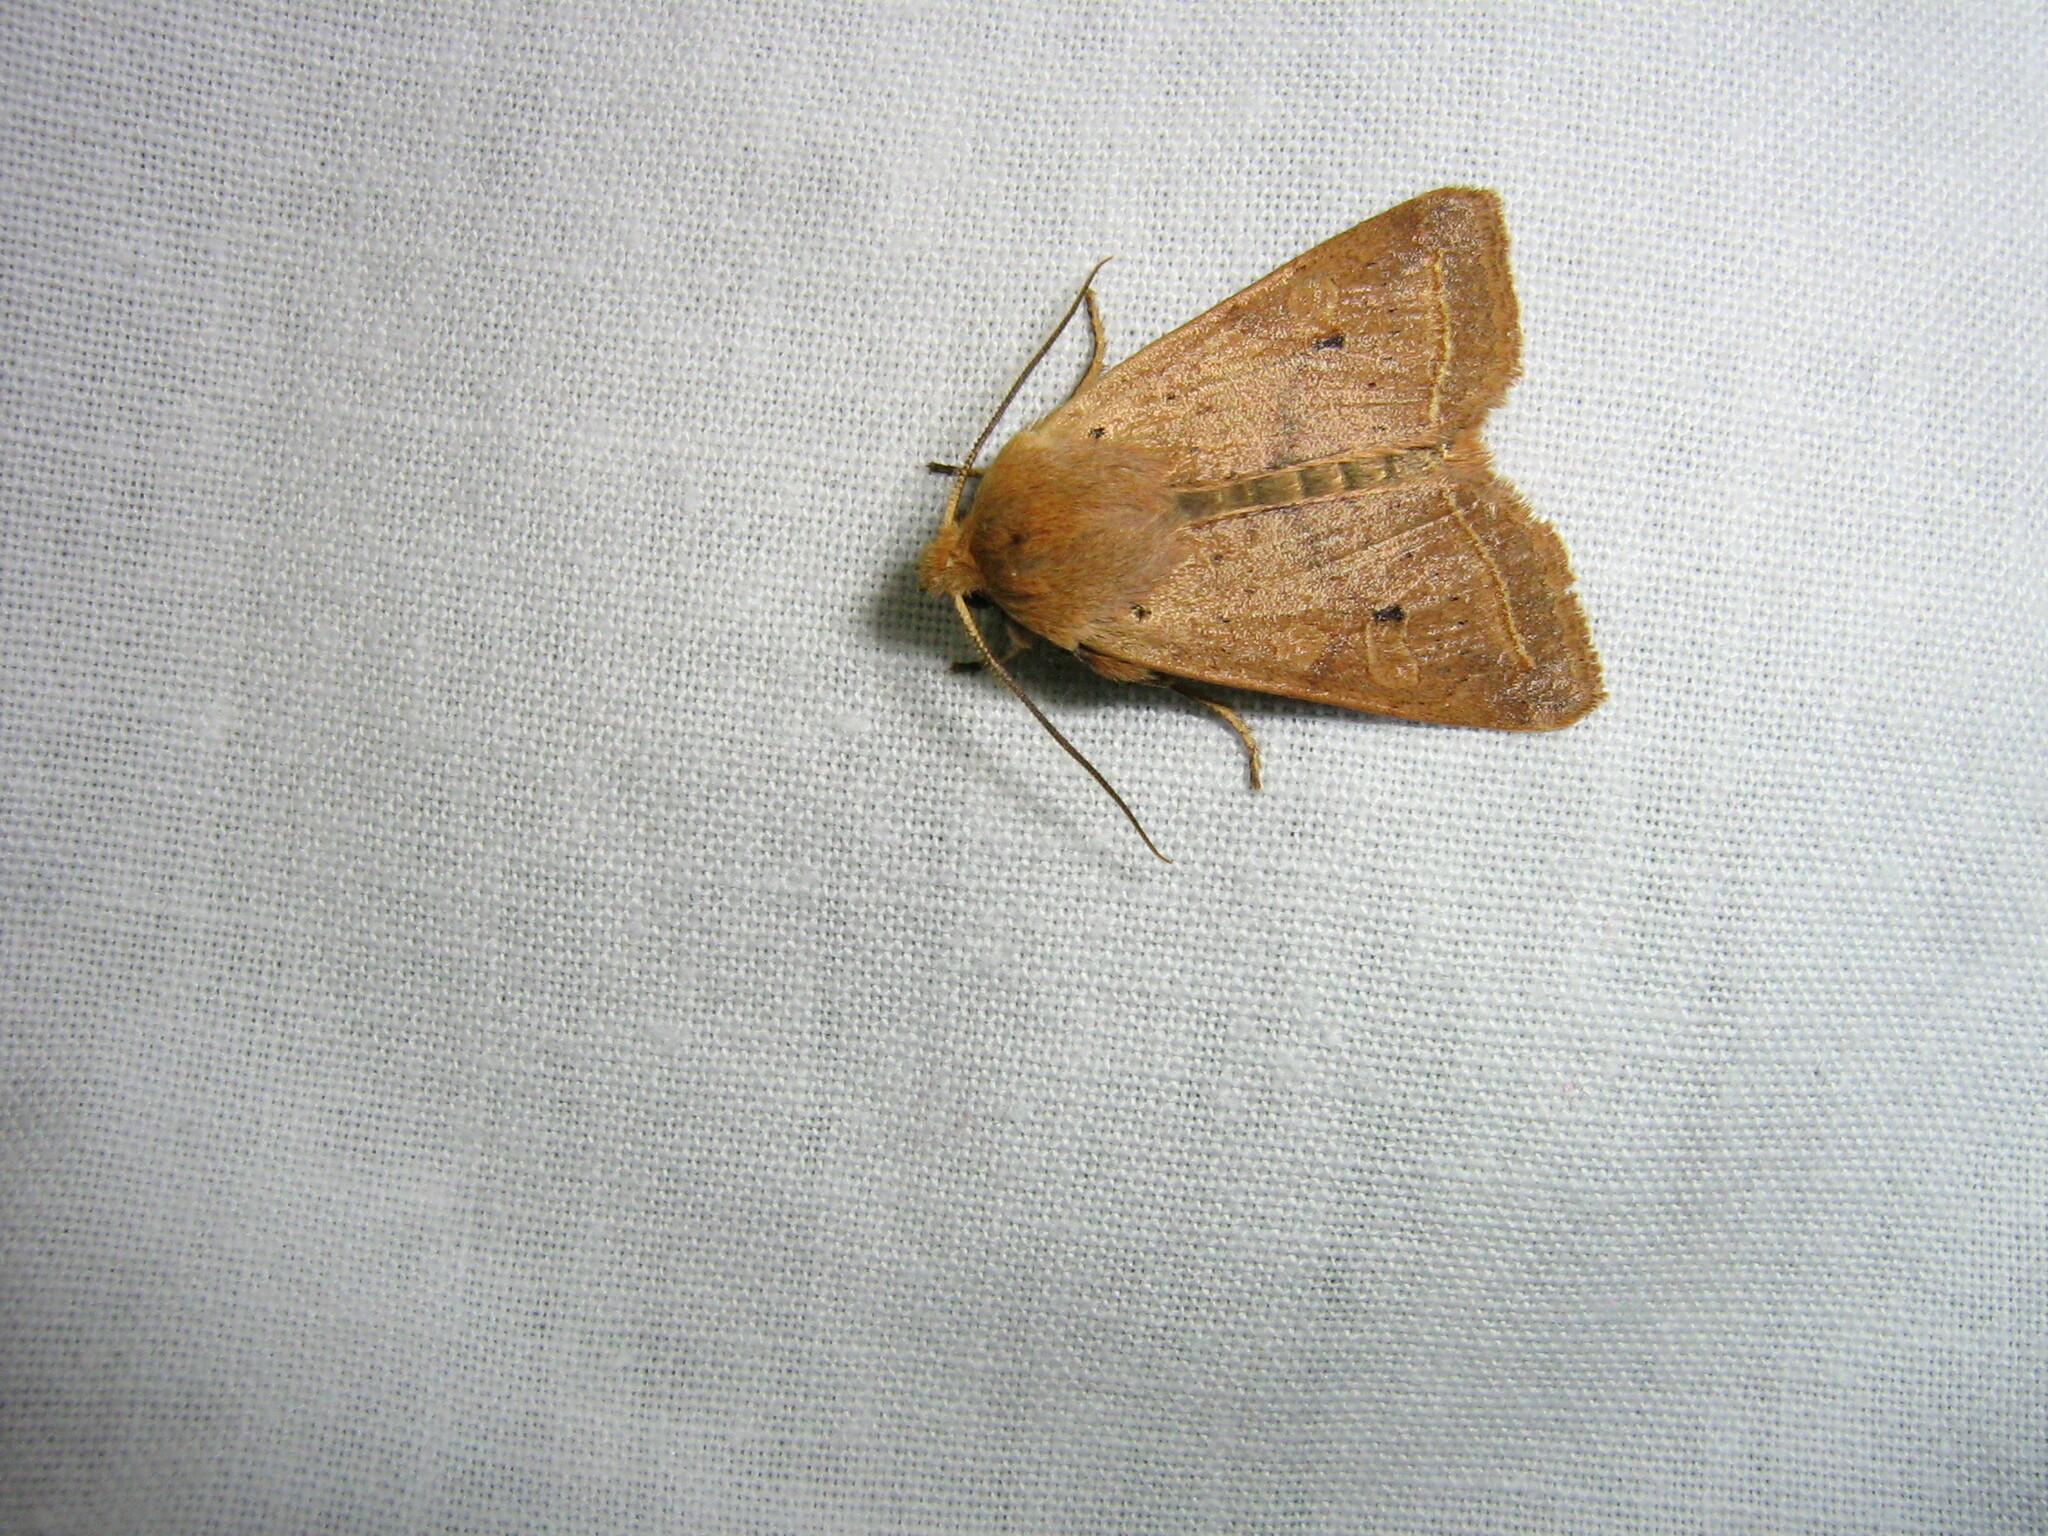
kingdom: Animalia
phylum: Arthropoda
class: Insecta
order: Lepidoptera
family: Noctuidae
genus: Agrochola
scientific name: Agrochola macilenta
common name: Yellow-line quaker
